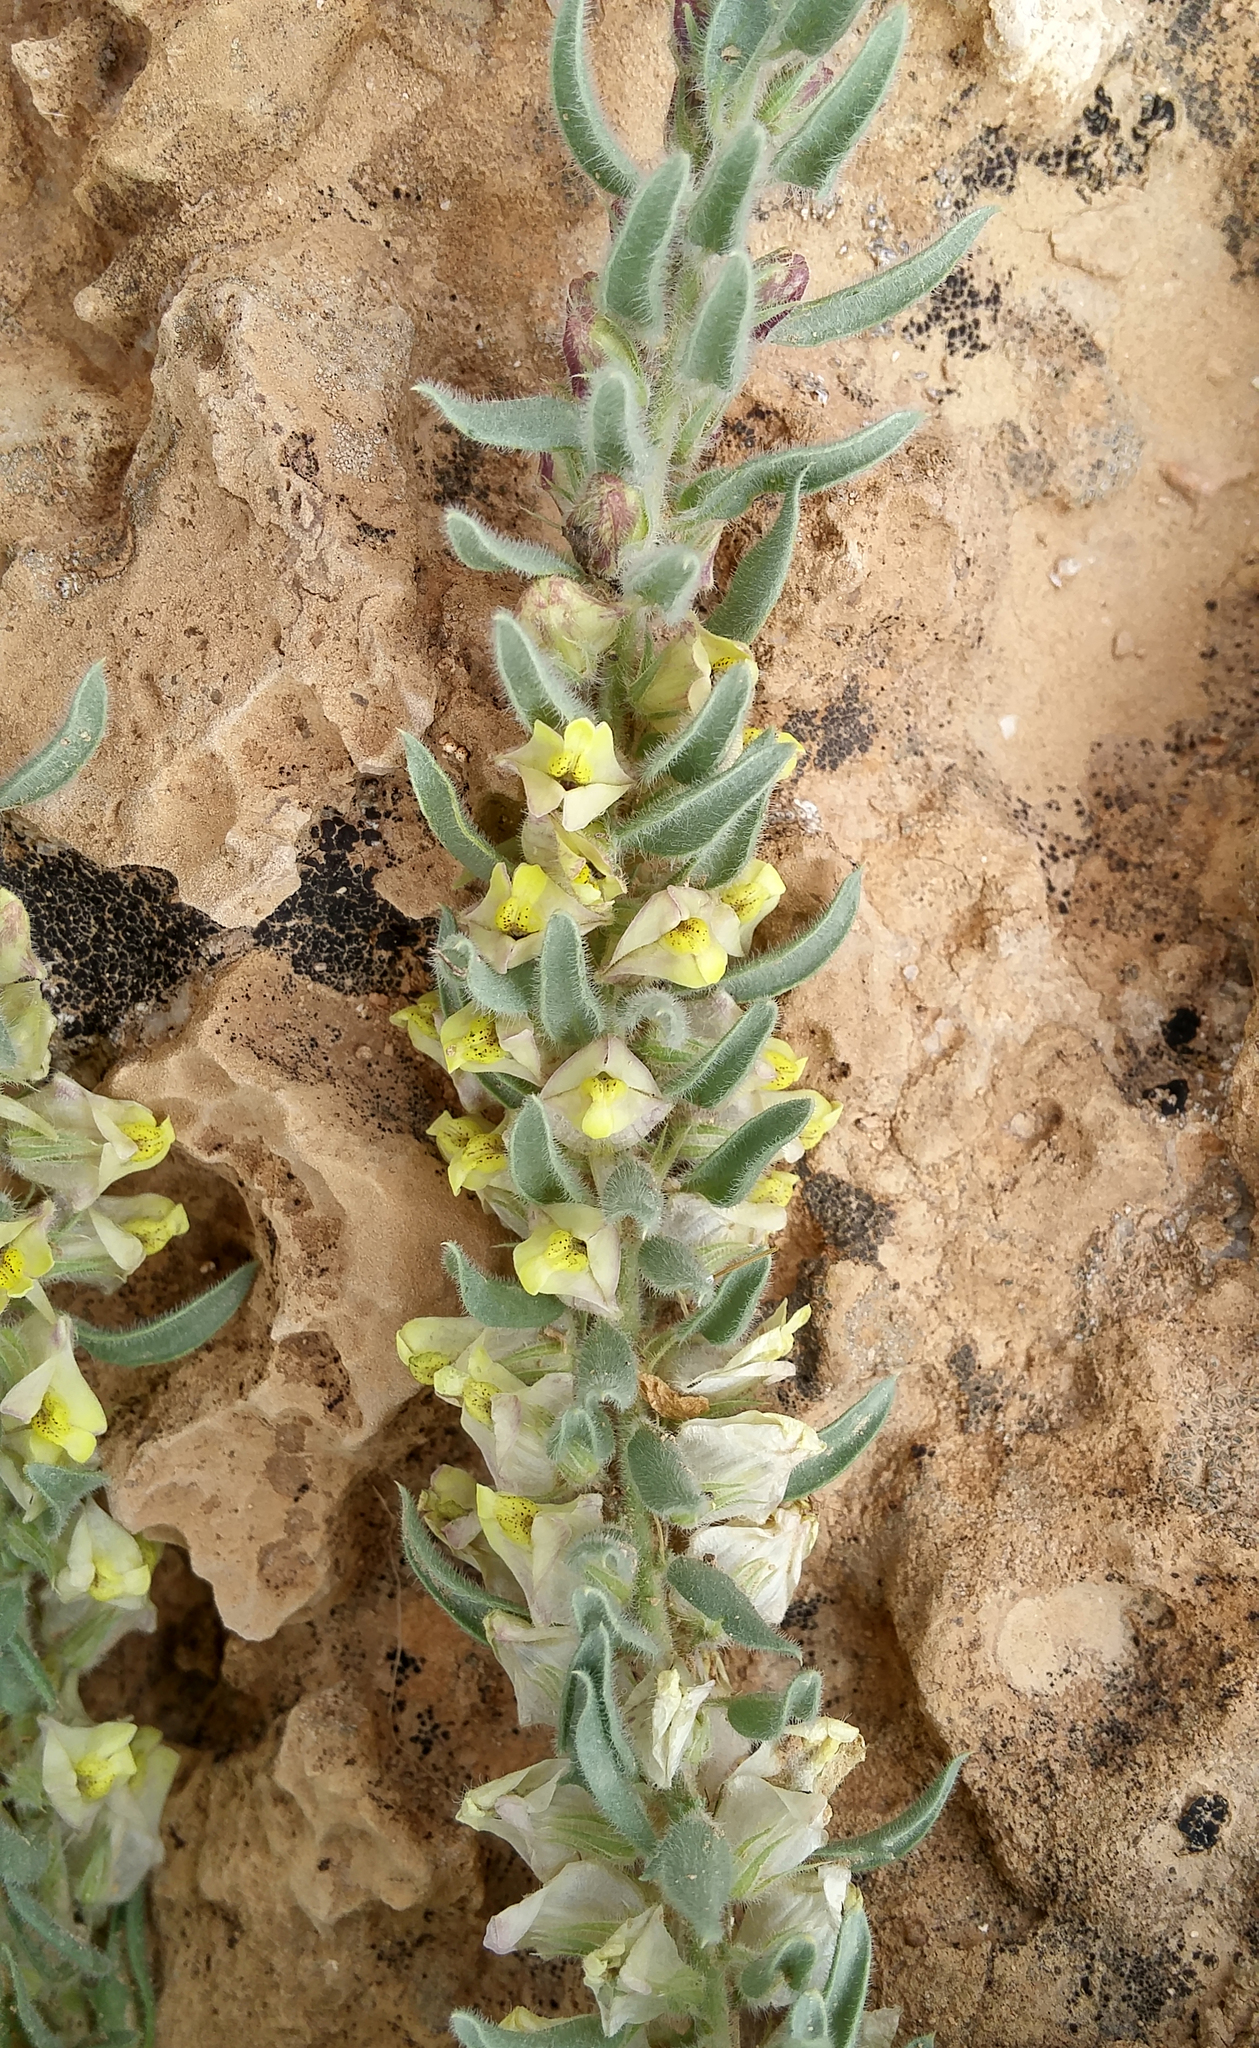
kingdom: Plantae
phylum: Tracheophyta
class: Magnoliopsida
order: Lamiales
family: Plantaginaceae
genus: Kickxia
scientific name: Kickxia floribunda
